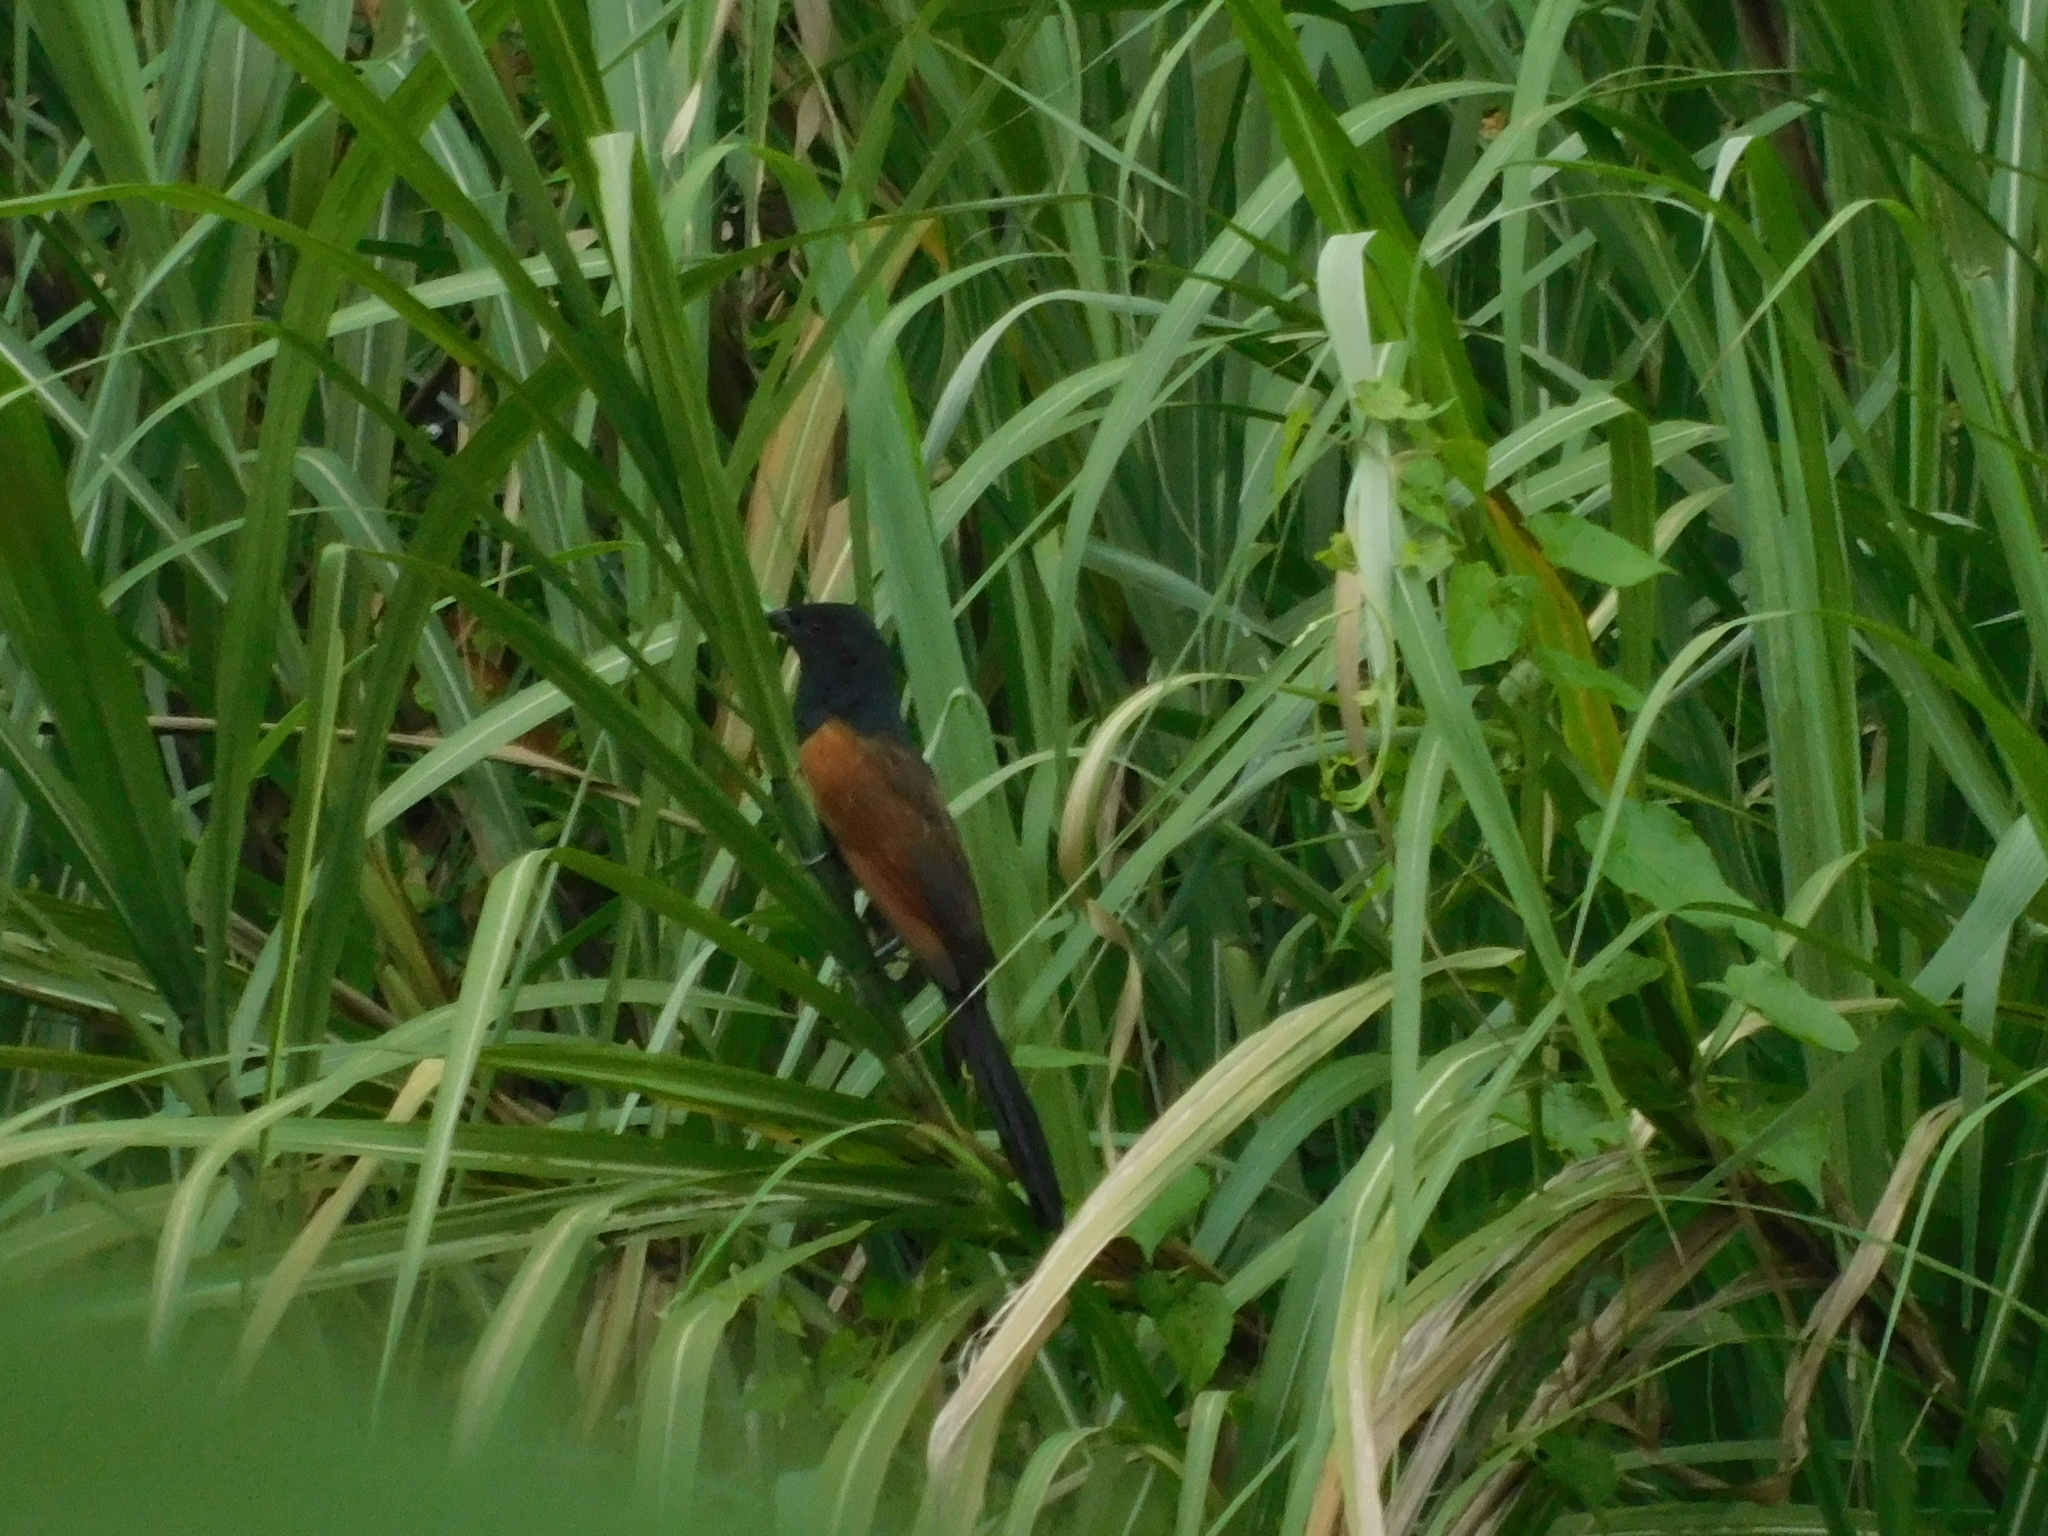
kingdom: Animalia
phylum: Chordata
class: Aves
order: Cuculiformes
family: Cuculidae
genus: Centropus
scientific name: Centropus bengalensis
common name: Lesser coucal
